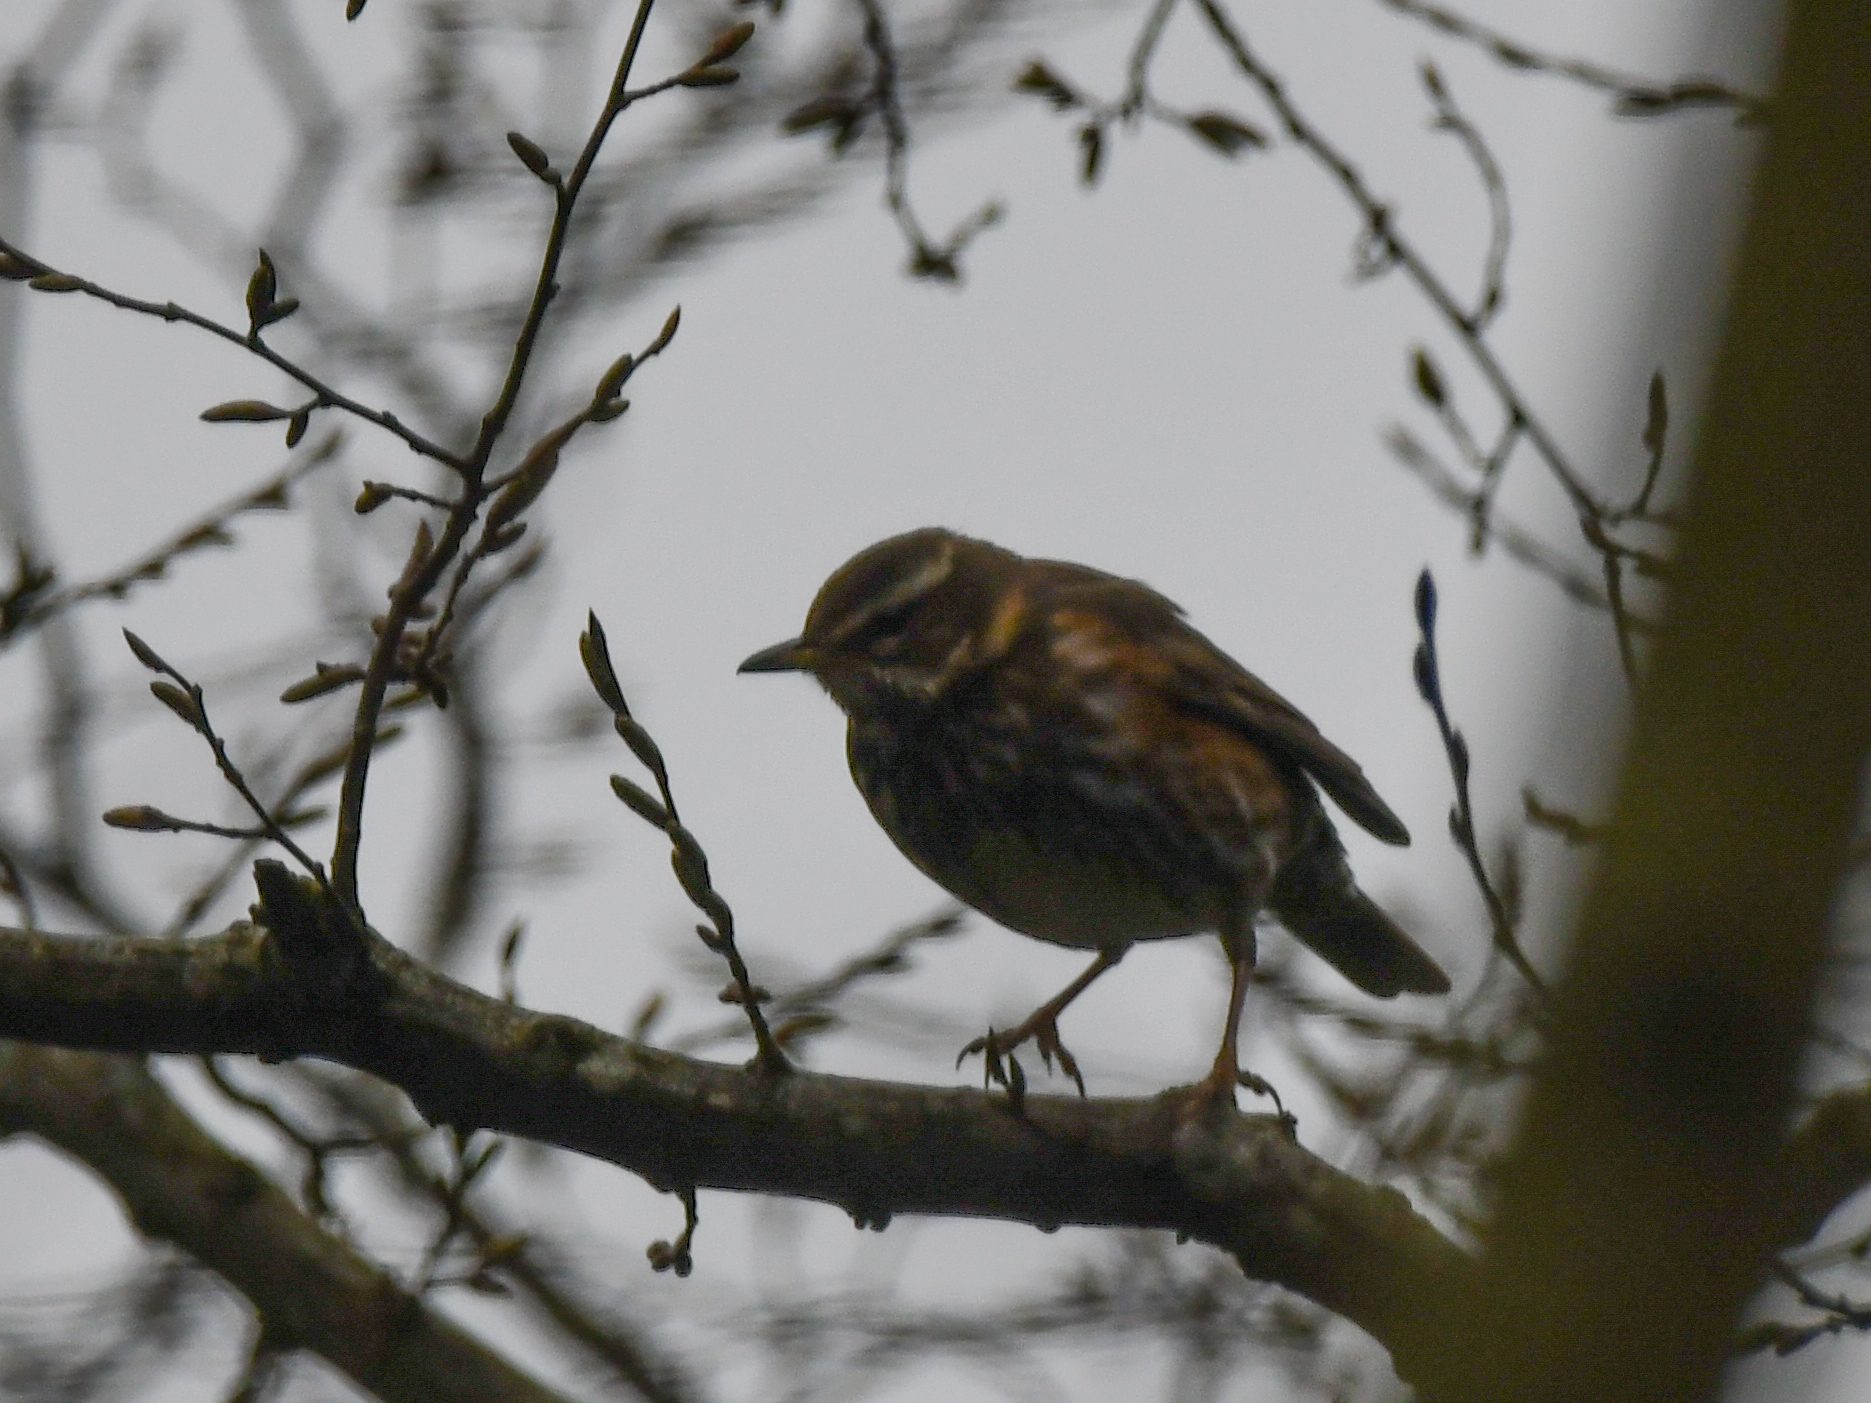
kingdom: Animalia
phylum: Chordata
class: Aves
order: Passeriformes
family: Turdidae
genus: Turdus
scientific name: Turdus iliacus
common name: Redwing
